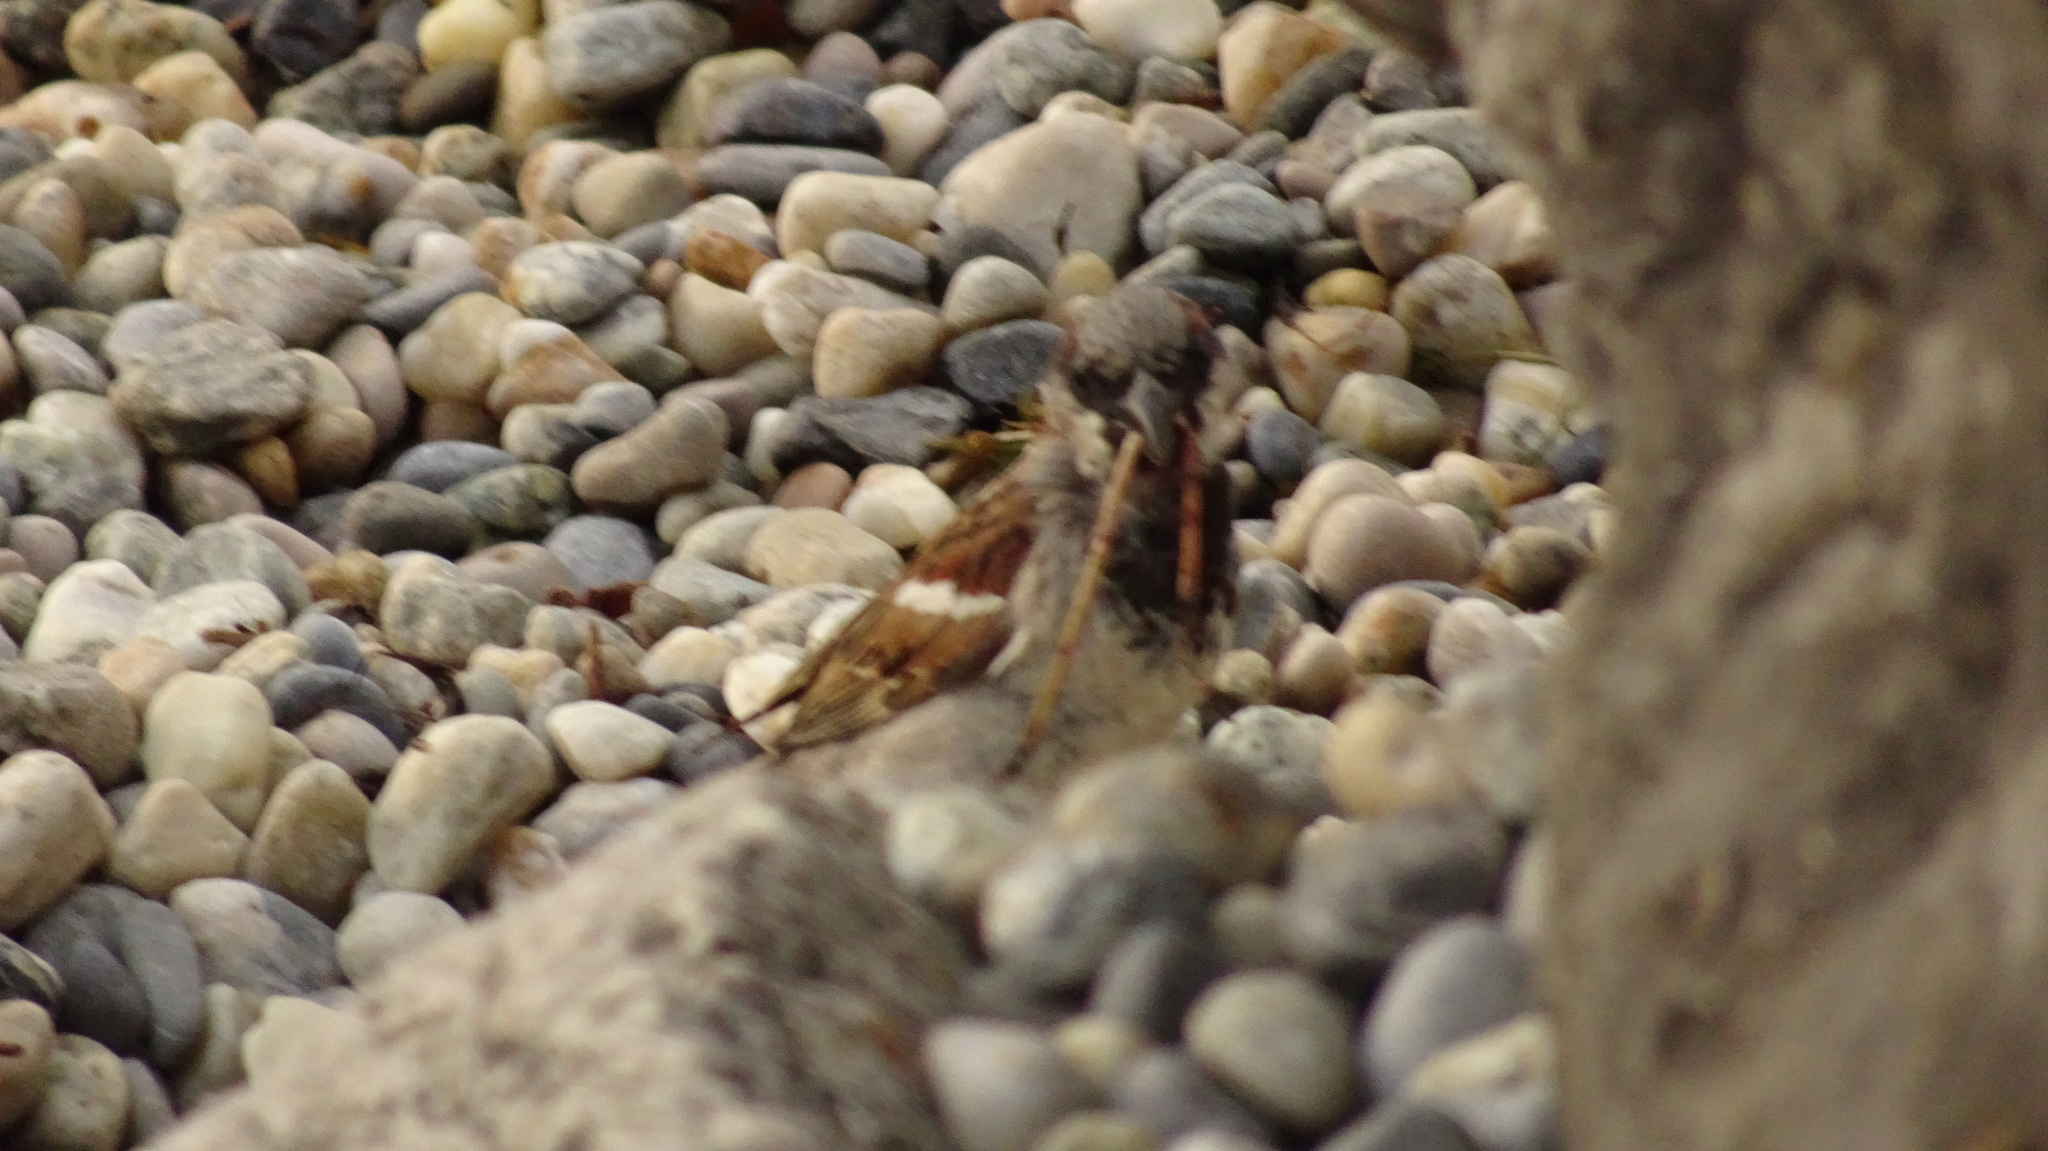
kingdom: Animalia
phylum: Chordata
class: Aves
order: Passeriformes
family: Passeridae
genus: Passer
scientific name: Passer domesticus
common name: House sparrow
